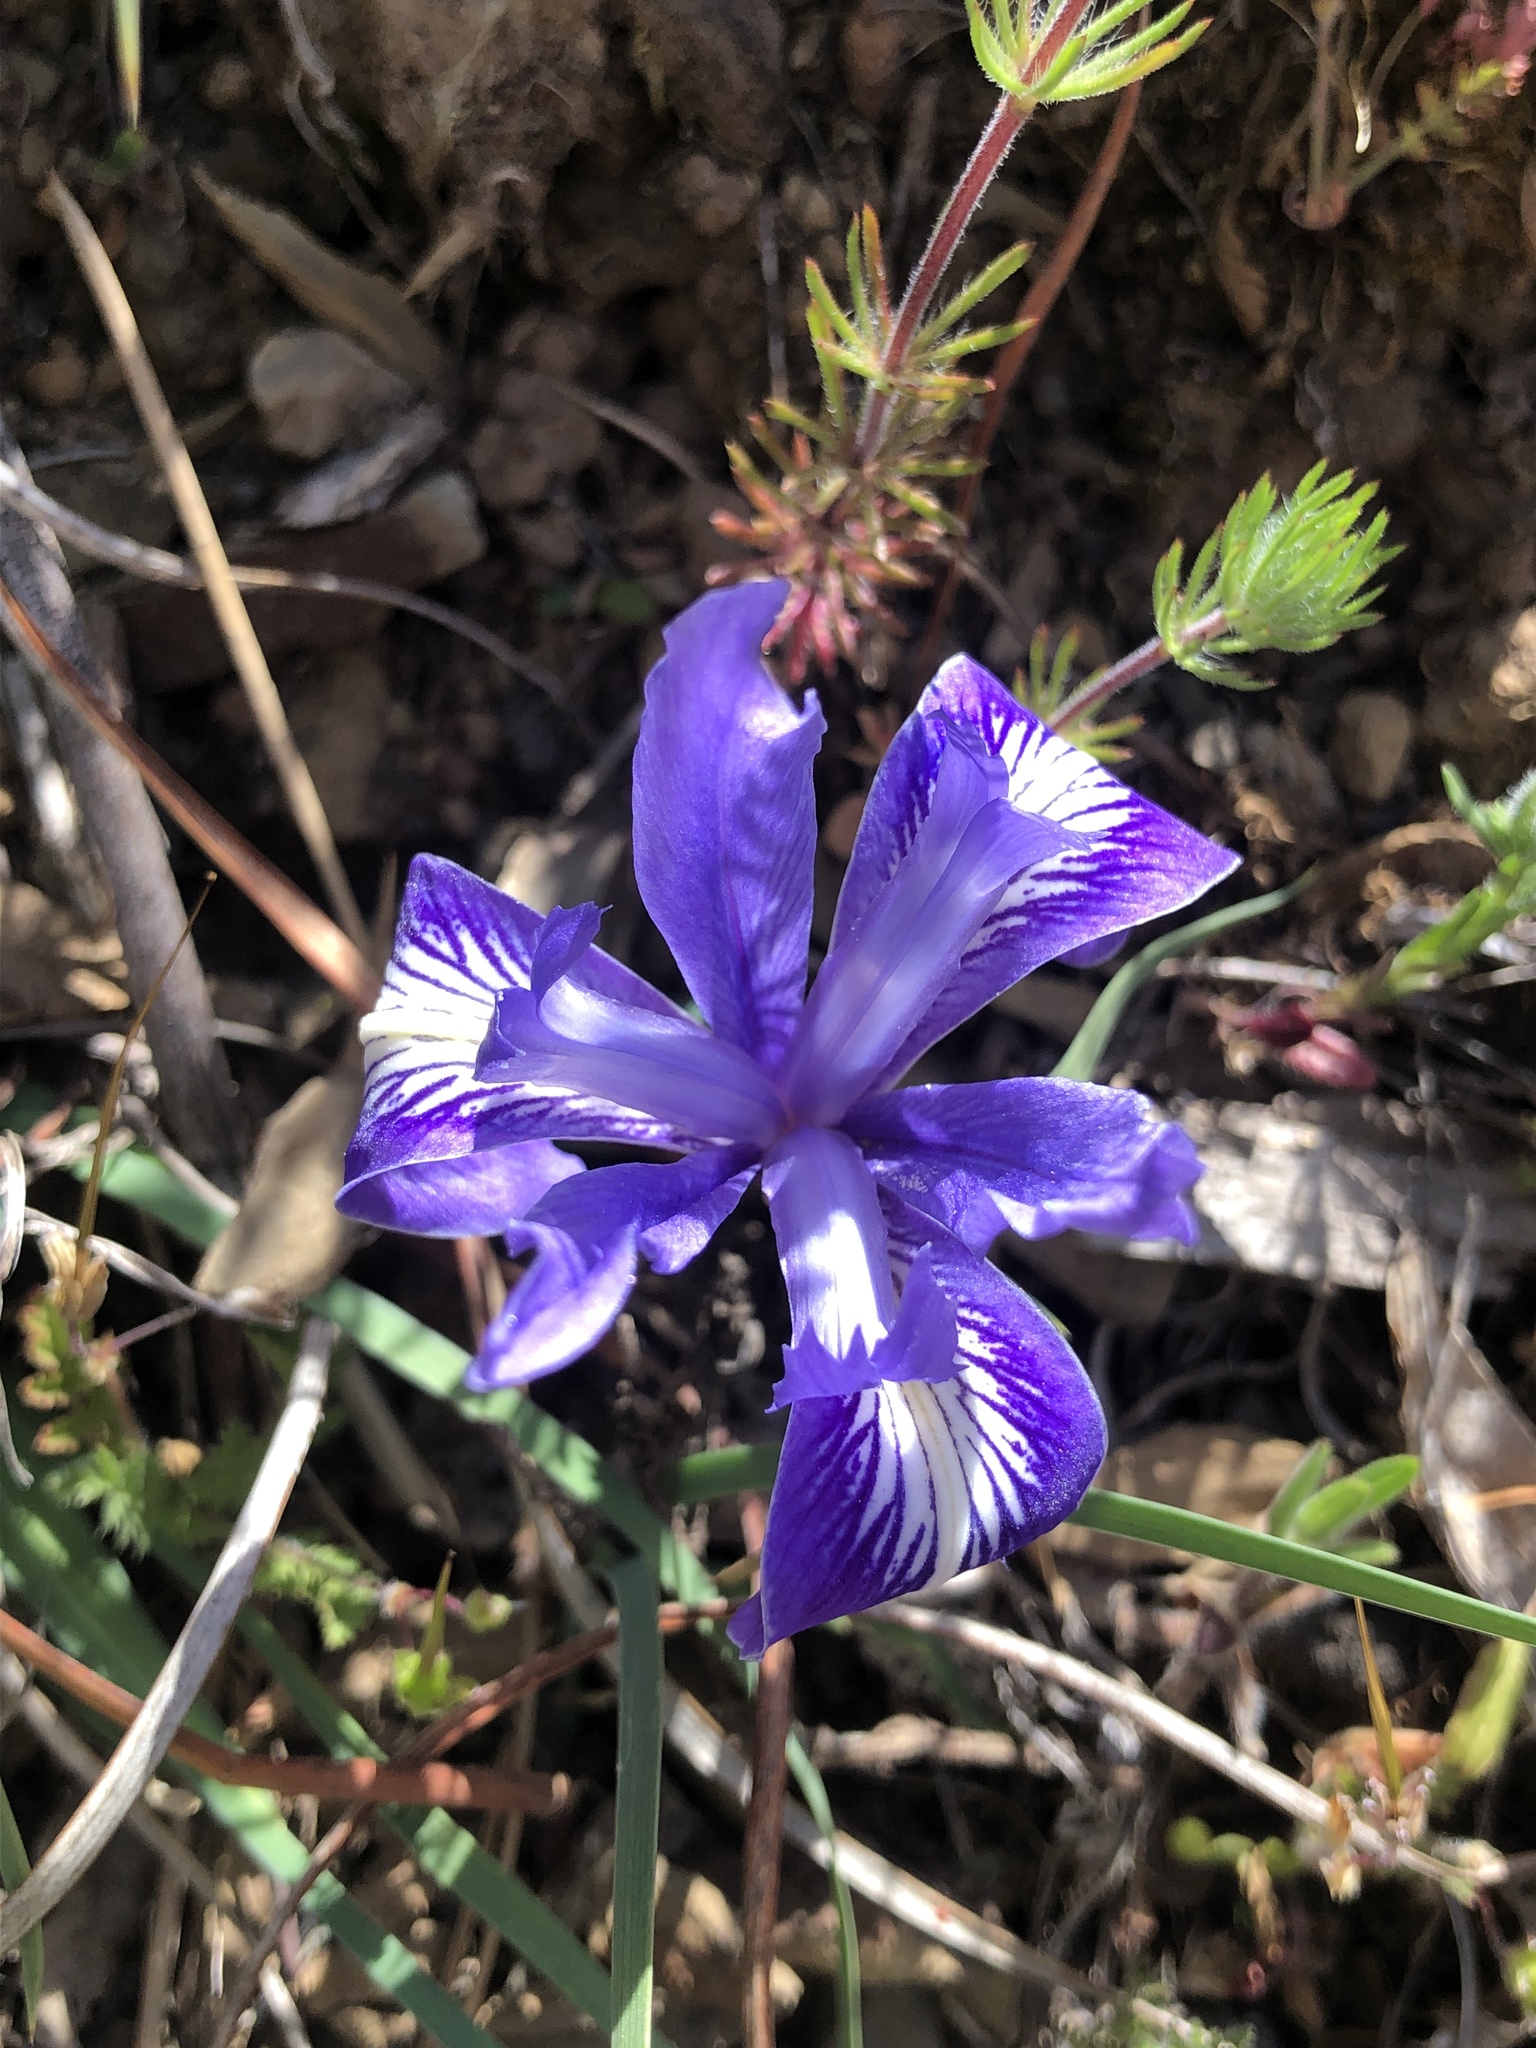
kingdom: Plantae
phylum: Tracheophyta
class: Liliopsida
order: Asparagales
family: Iridaceae
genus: Iris
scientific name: Iris macrosiphon
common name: Ground iris
